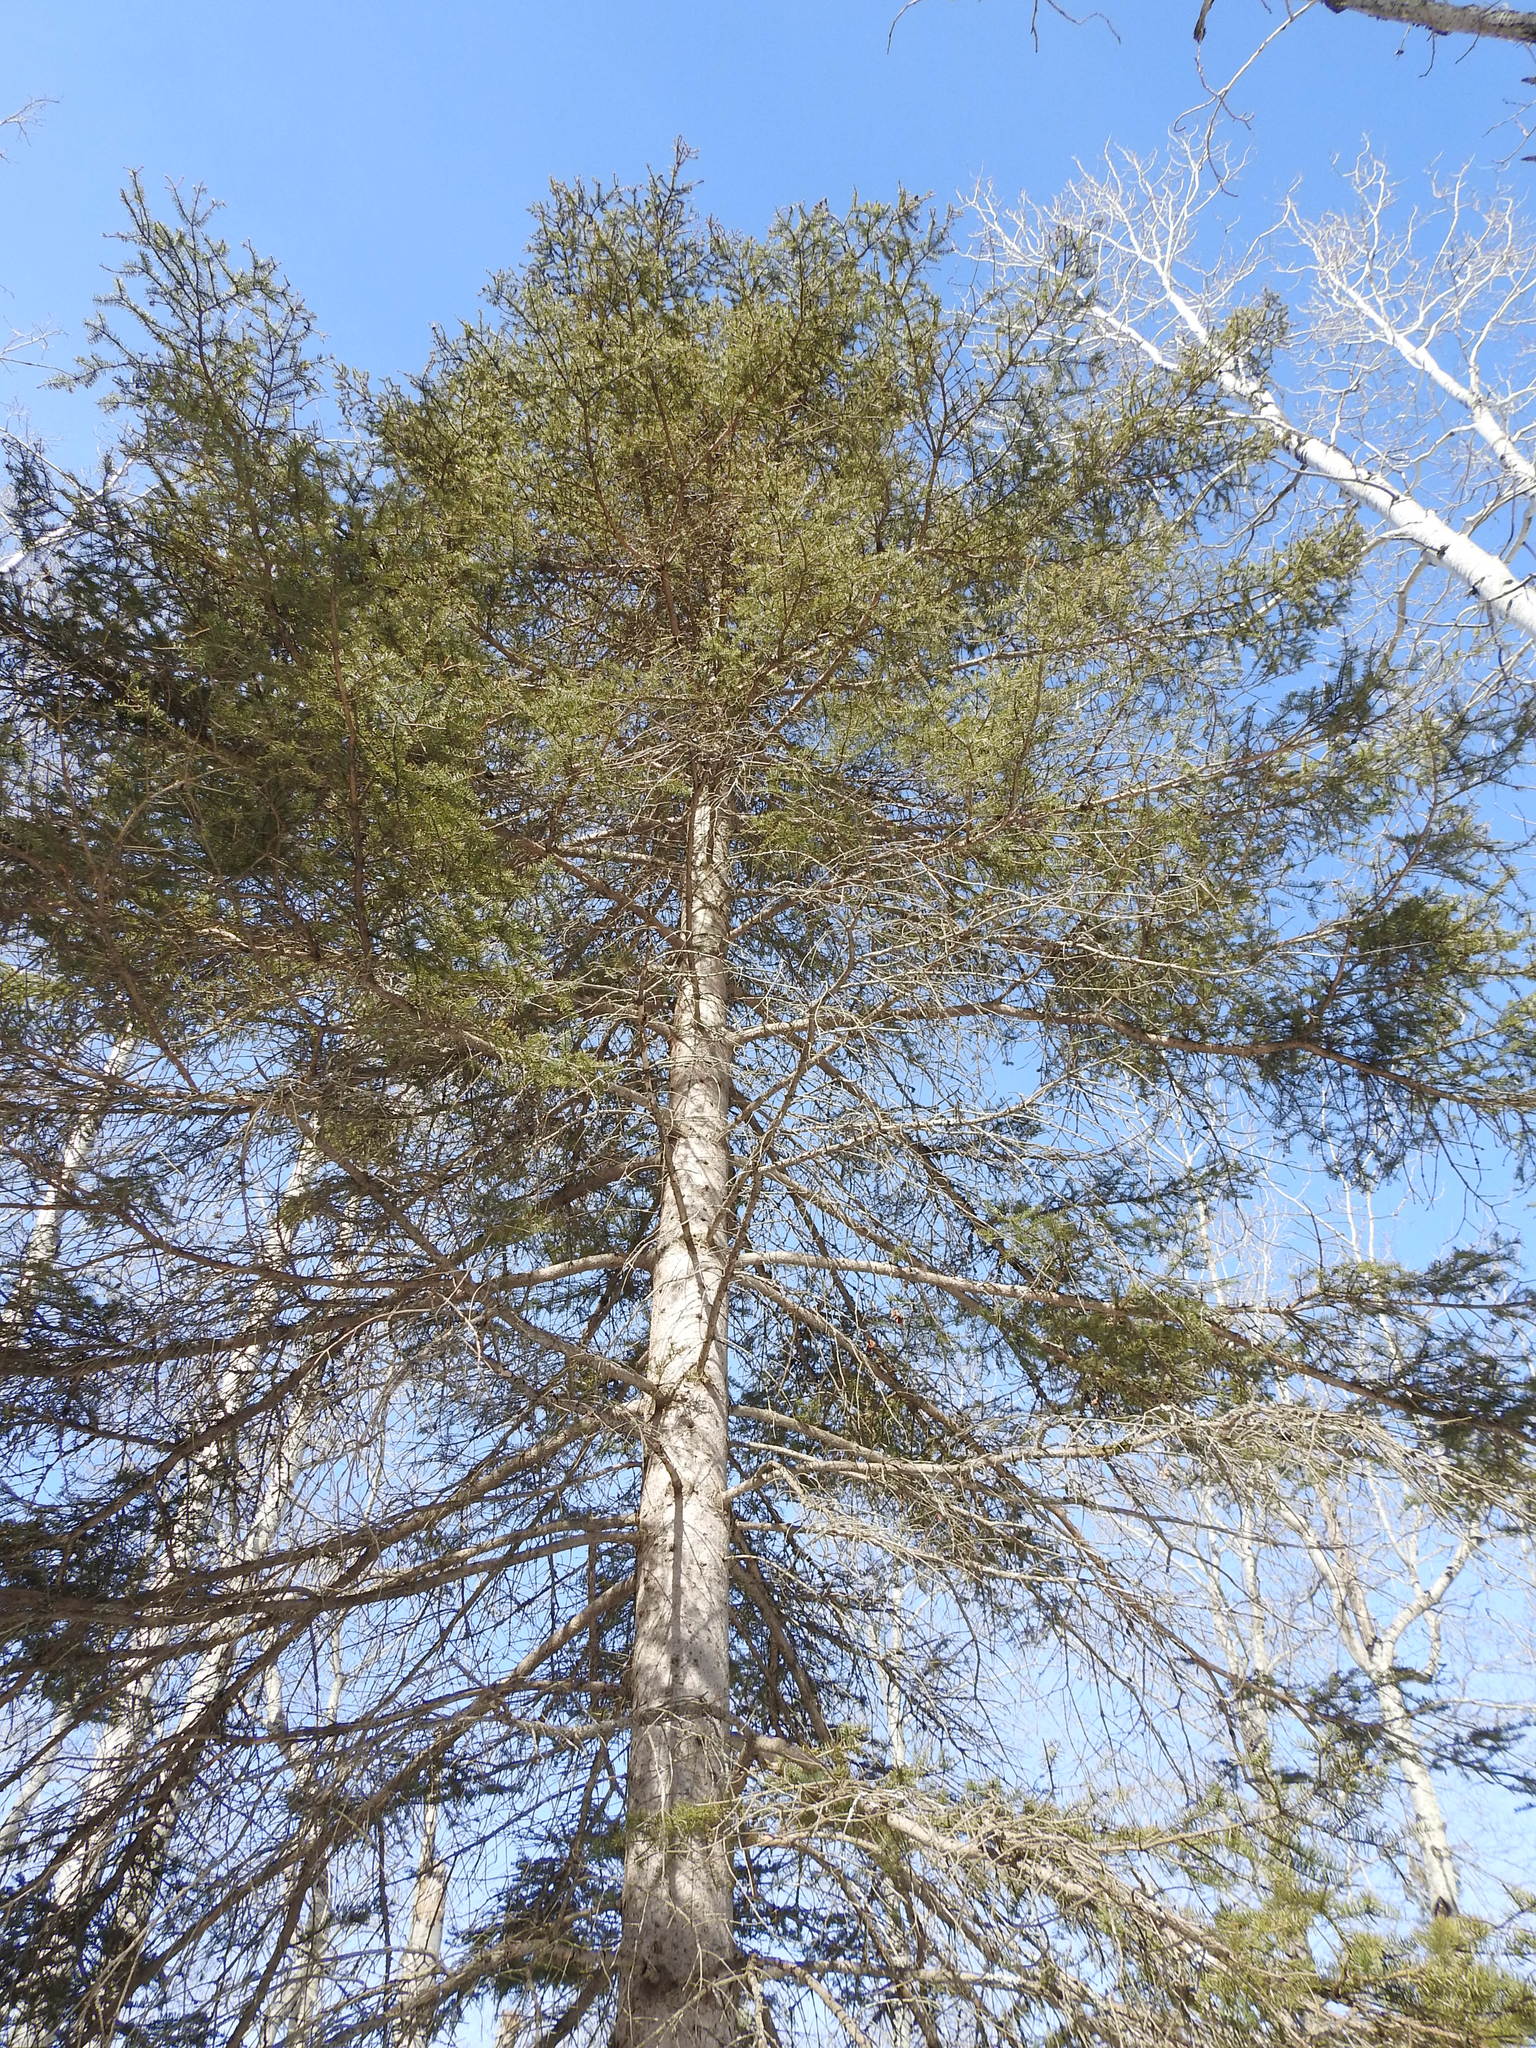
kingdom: Plantae
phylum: Tracheophyta
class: Pinopsida
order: Pinales
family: Pinaceae
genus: Picea
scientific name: Picea glauca
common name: White spruce
